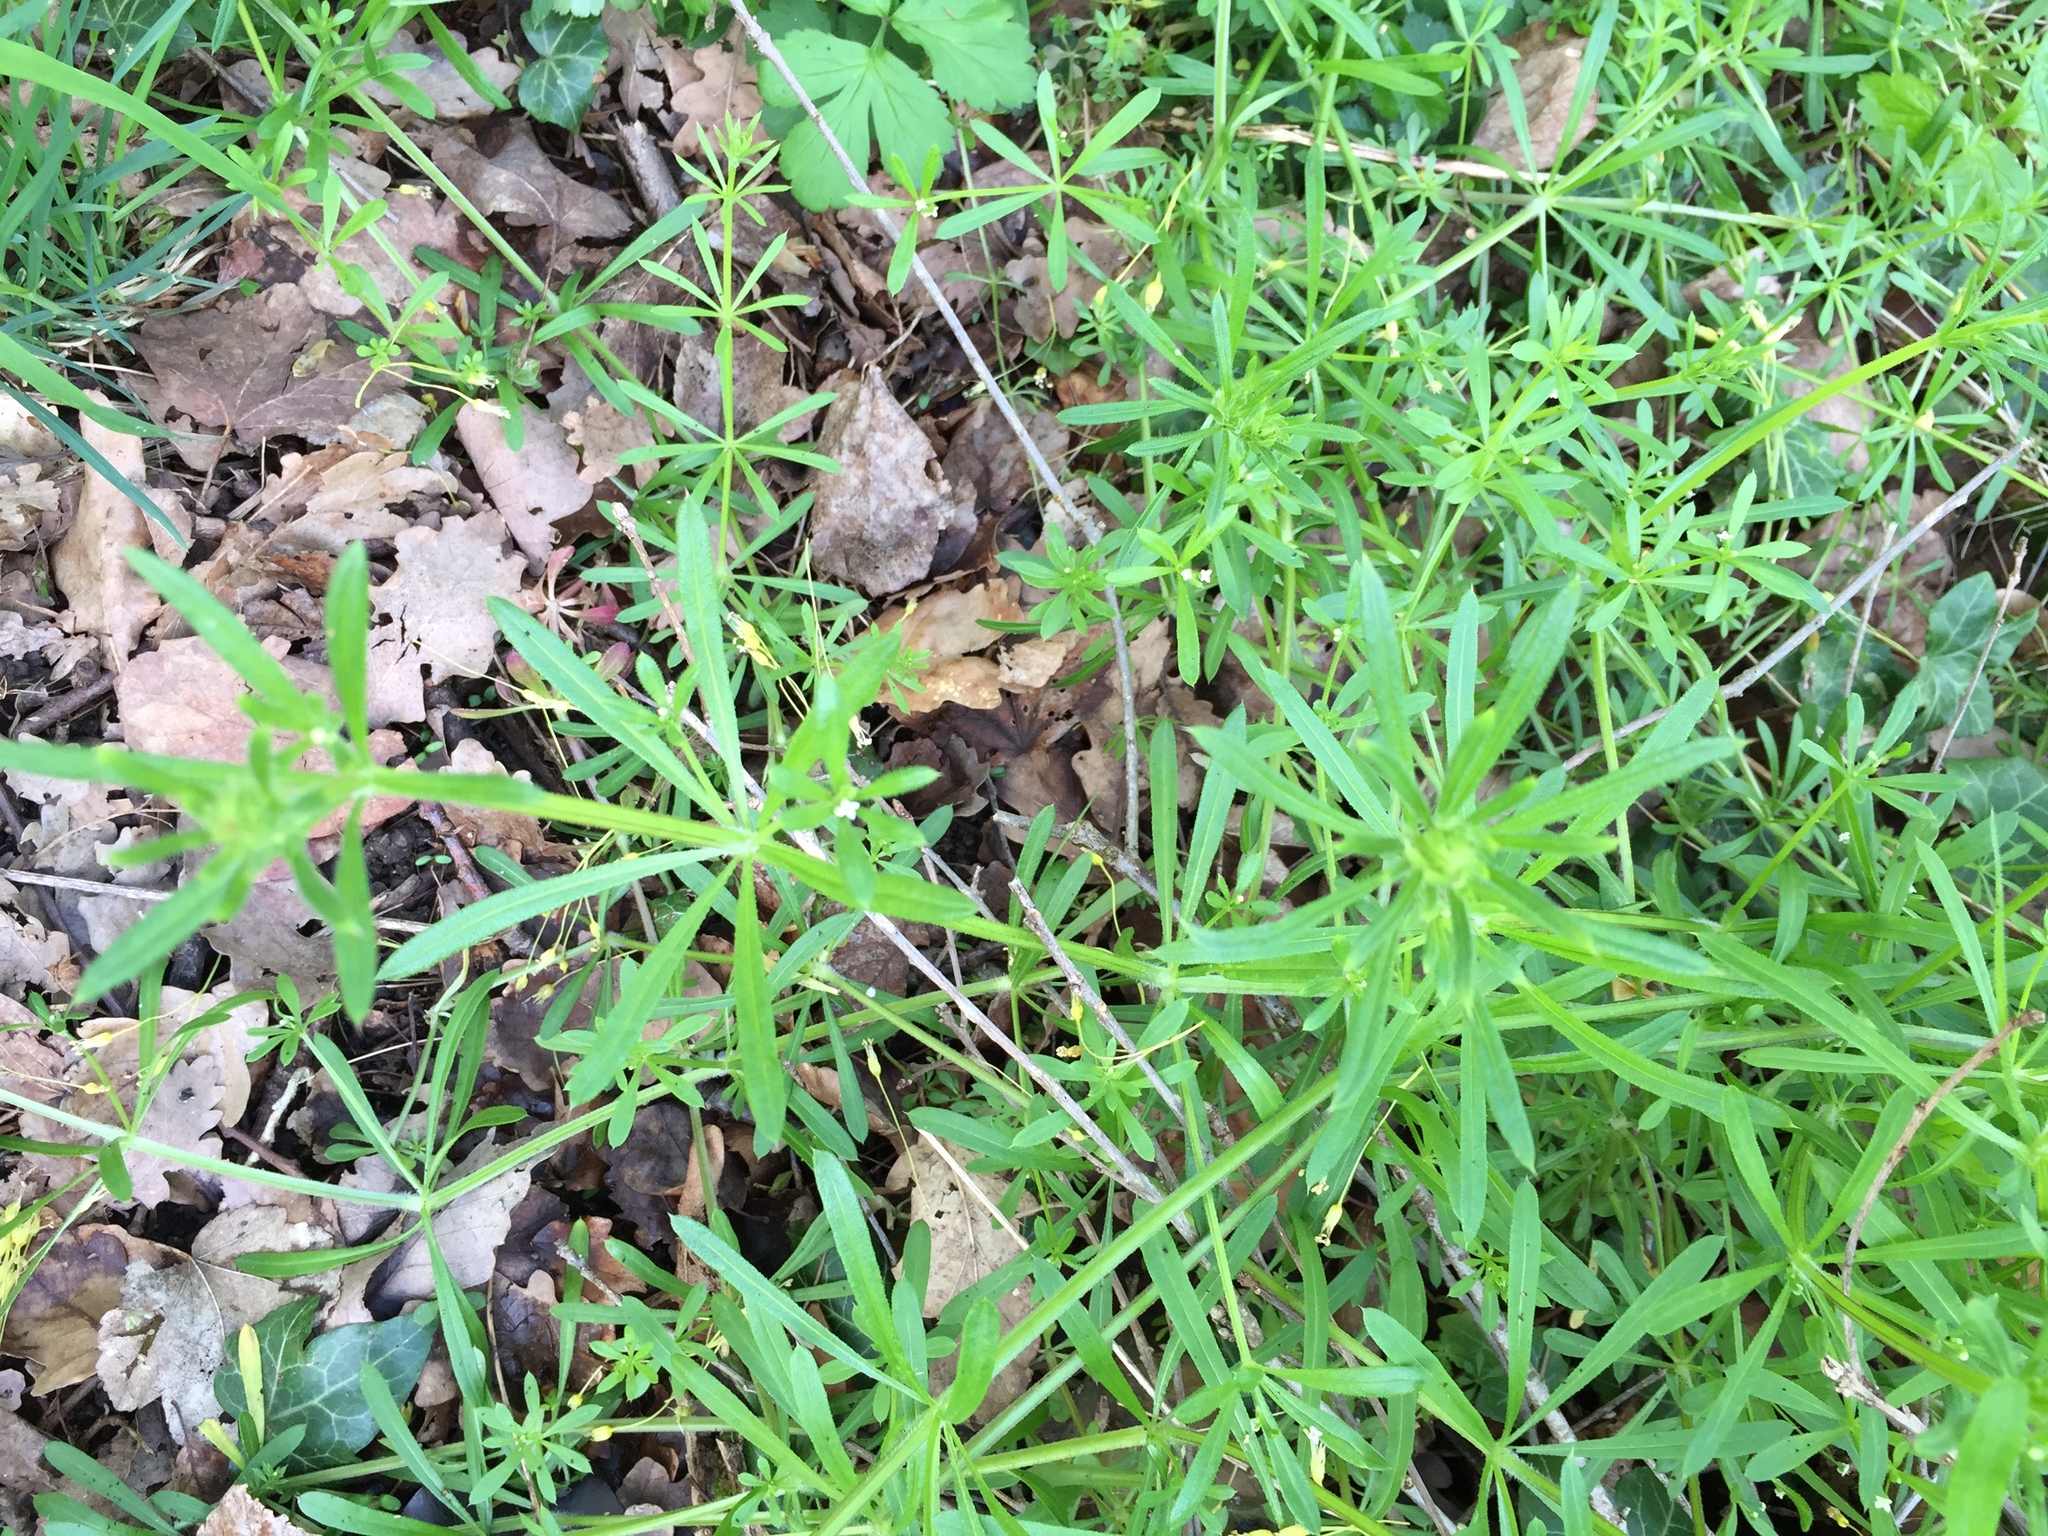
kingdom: Plantae
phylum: Tracheophyta
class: Magnoliopsida
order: Gentianales
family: Rubiaceae
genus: Galium
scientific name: Galium aparine
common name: Cleavers
